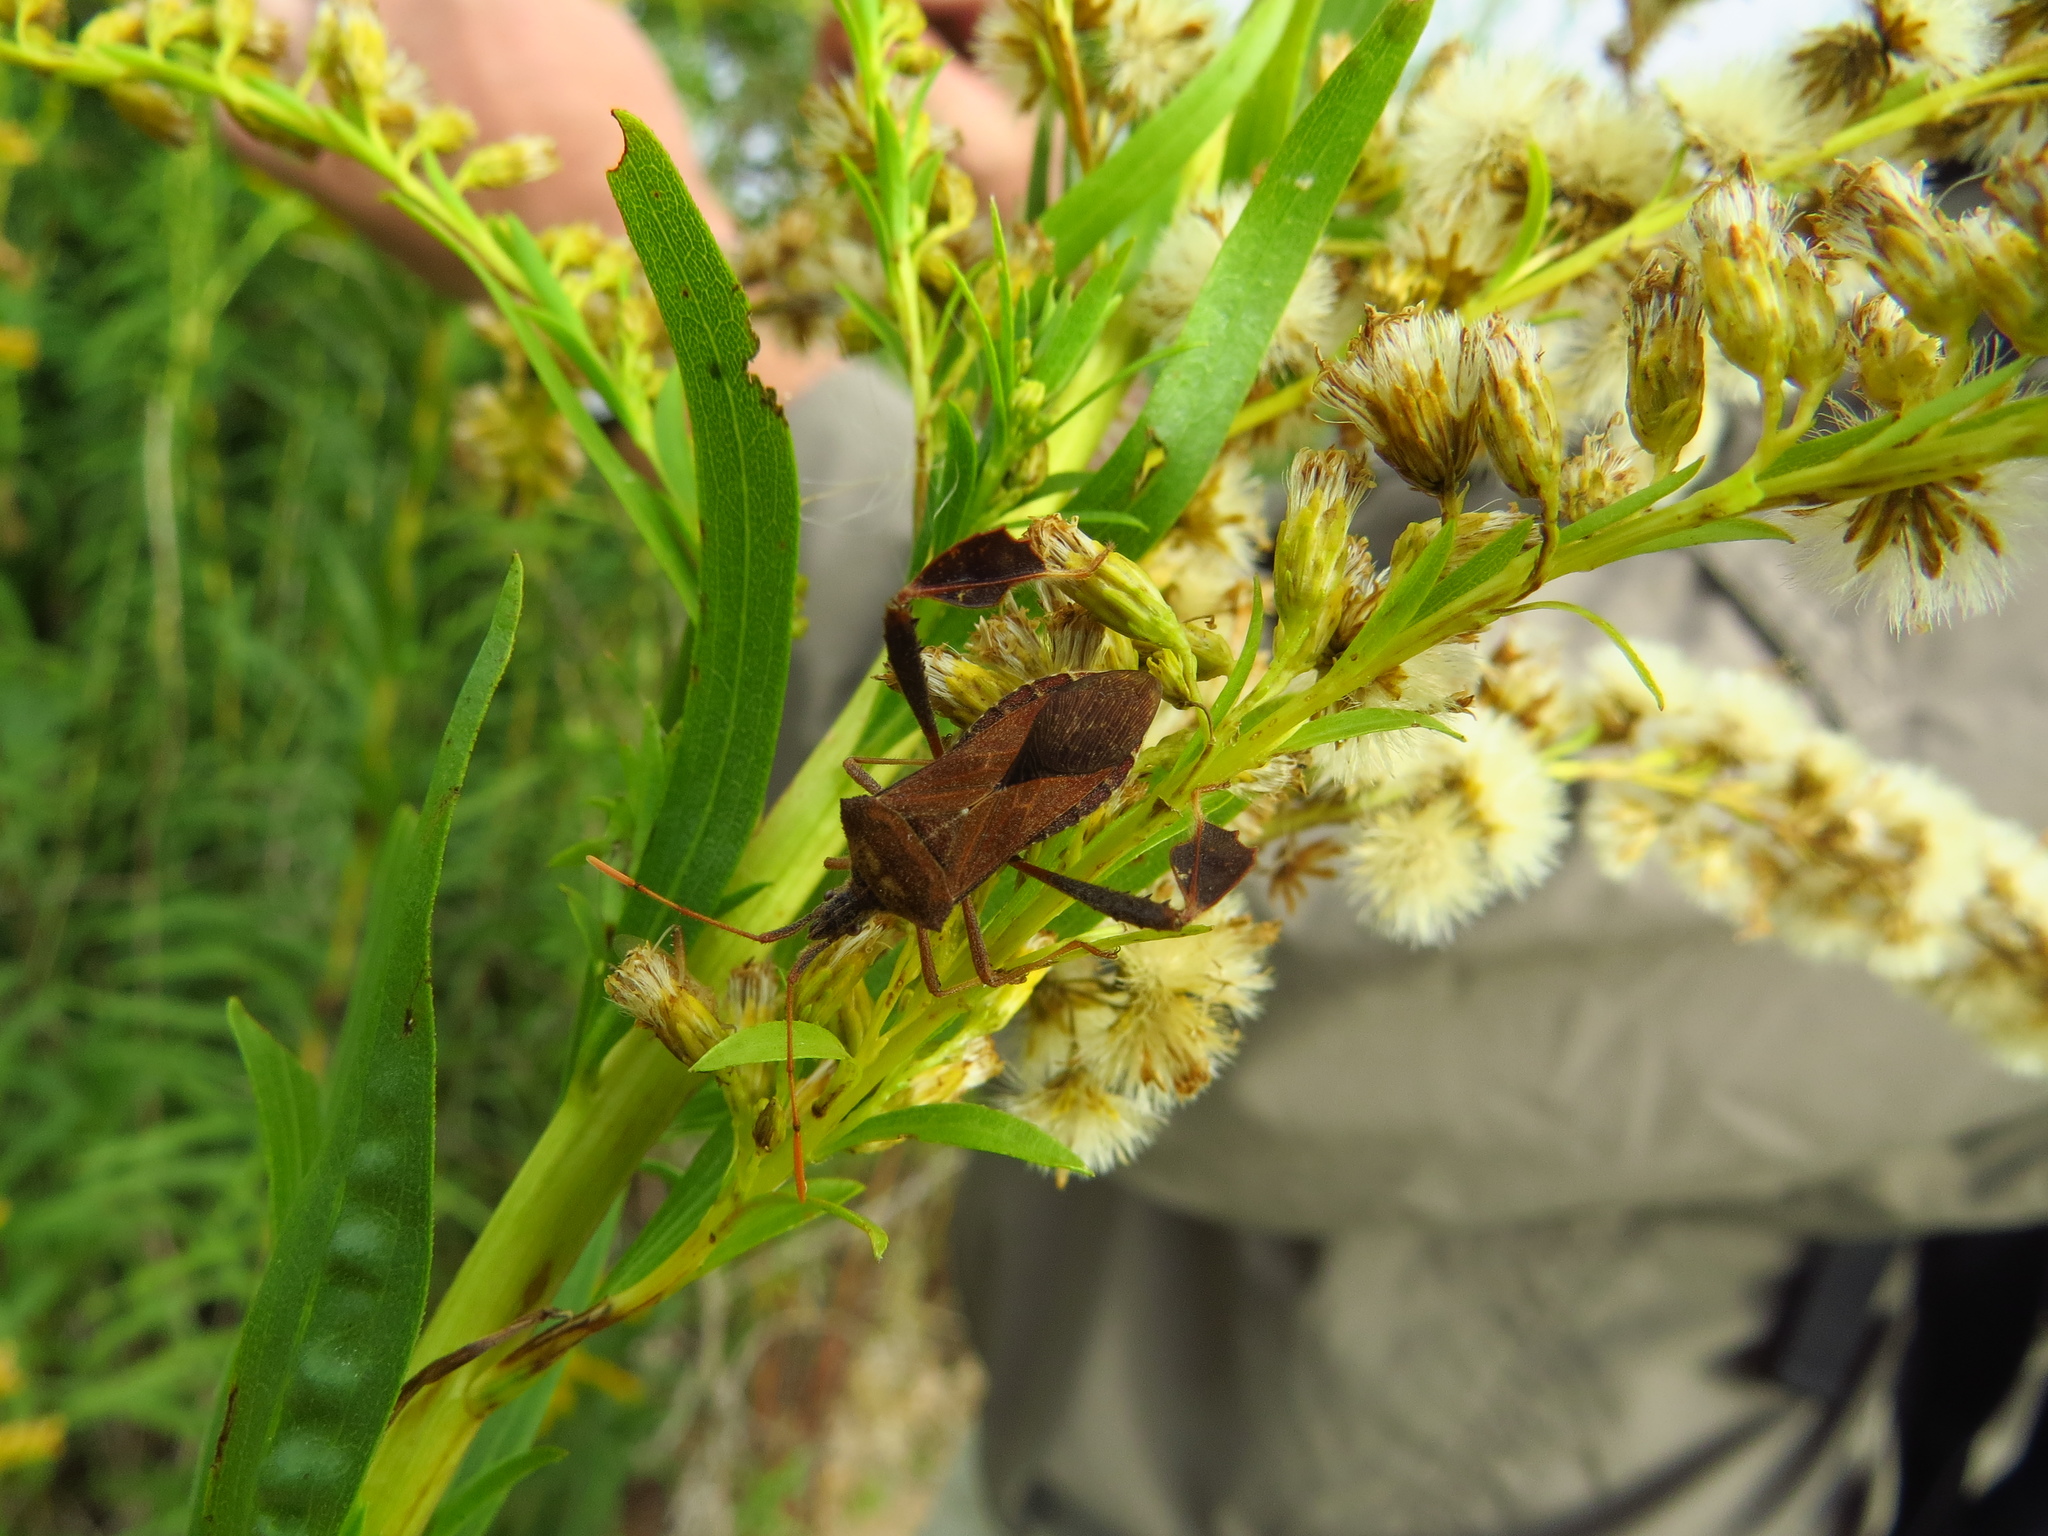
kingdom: Animalia
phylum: Arthropoda
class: Insecta
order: Hemiptera
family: Coreidae
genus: Leptoglossus
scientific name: Leptoglossus neovexillatus
